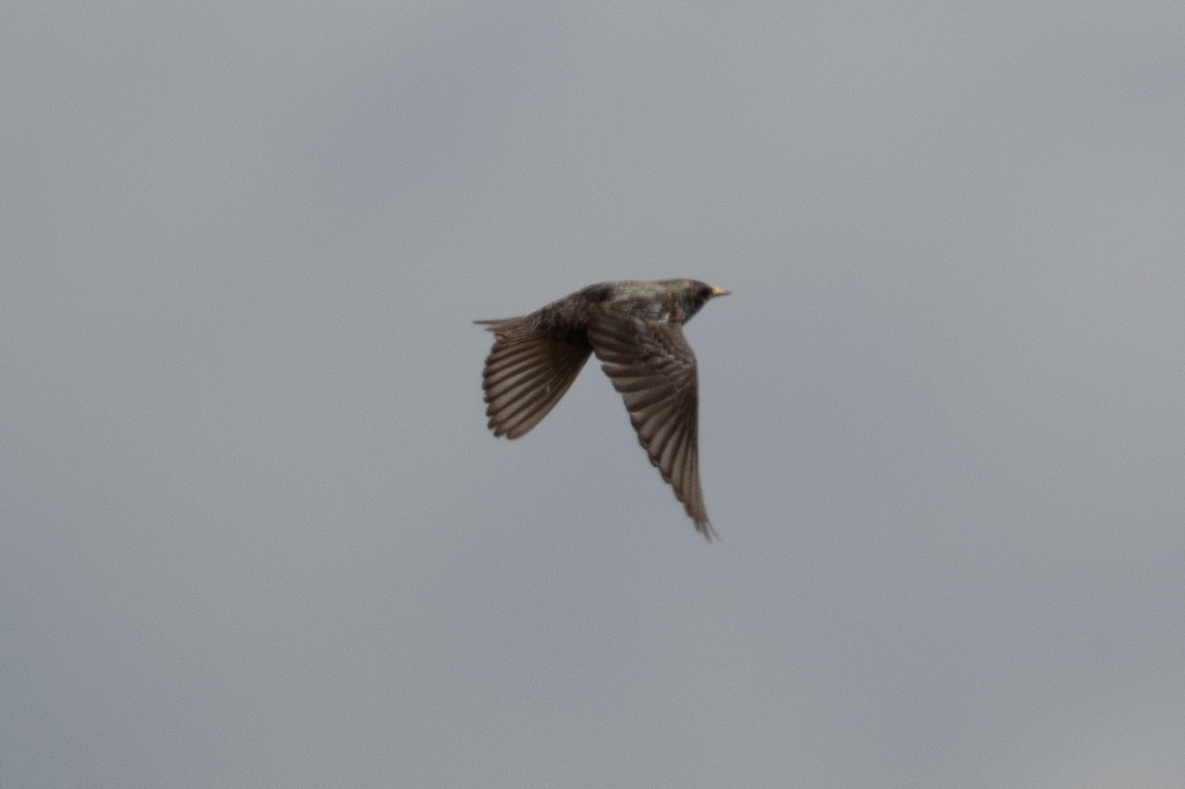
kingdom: Animalia
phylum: Chordata
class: Aves
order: Passeriformes
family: Sturnidae
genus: Sturnus
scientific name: Sturnus vulgaris
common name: Common starling
